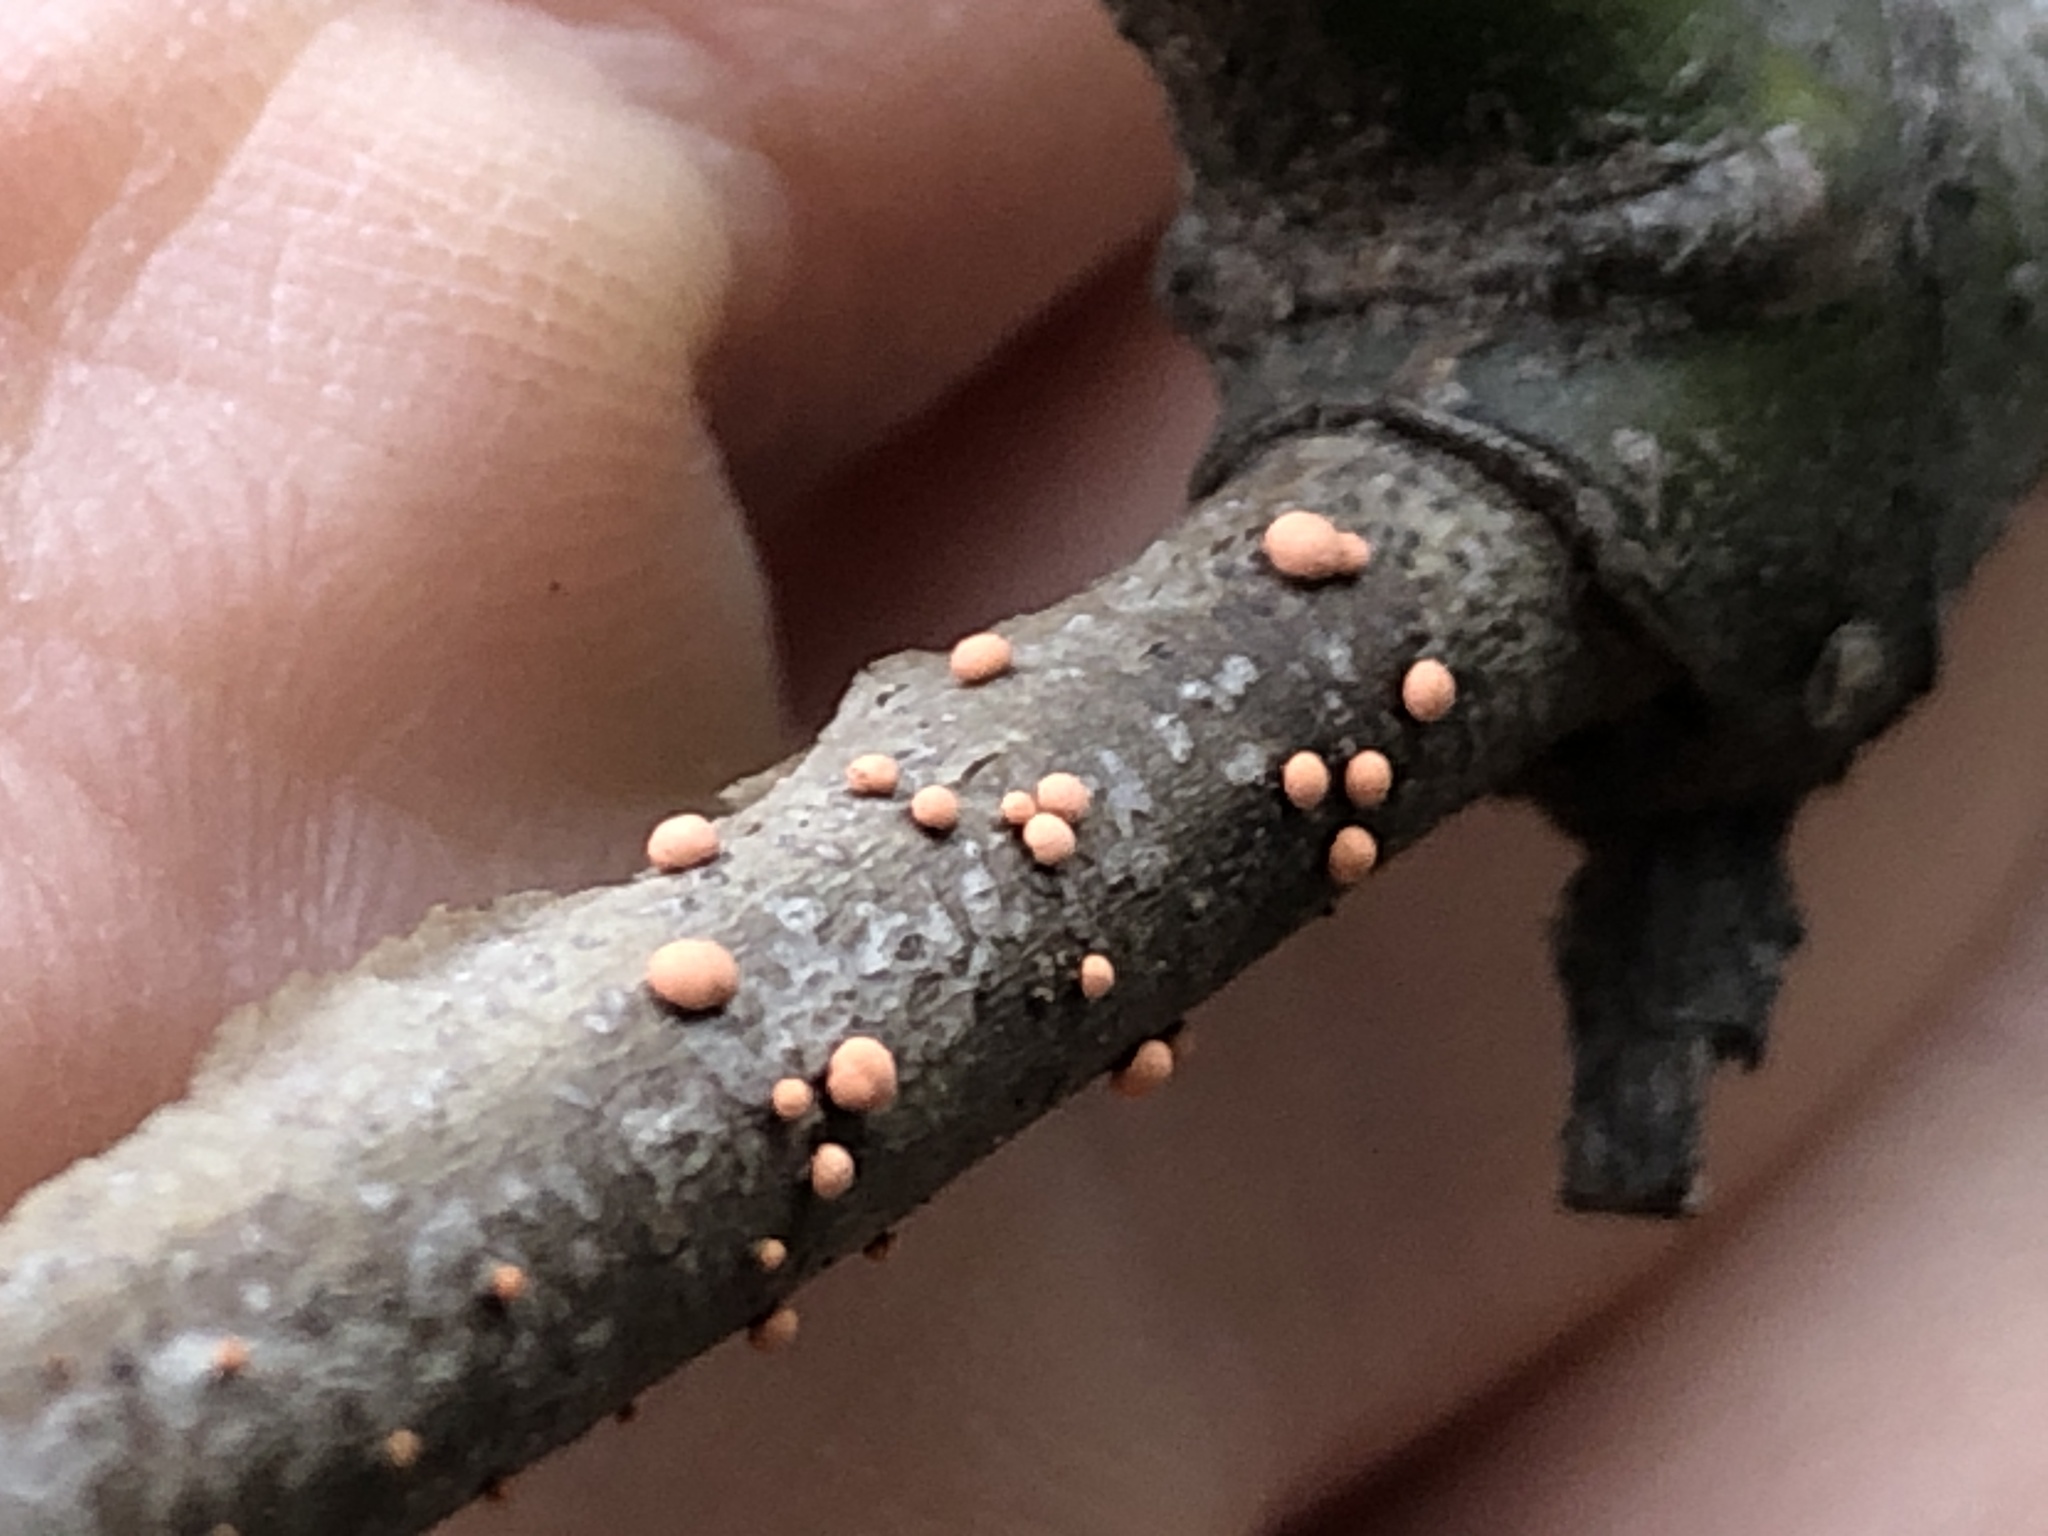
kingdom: Fungi
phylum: Ascomycota
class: Sordariomycetes
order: Hypocreales
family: Nectriaceae
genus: Nectria
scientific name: Nectria cinnabarina
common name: Coral spot
